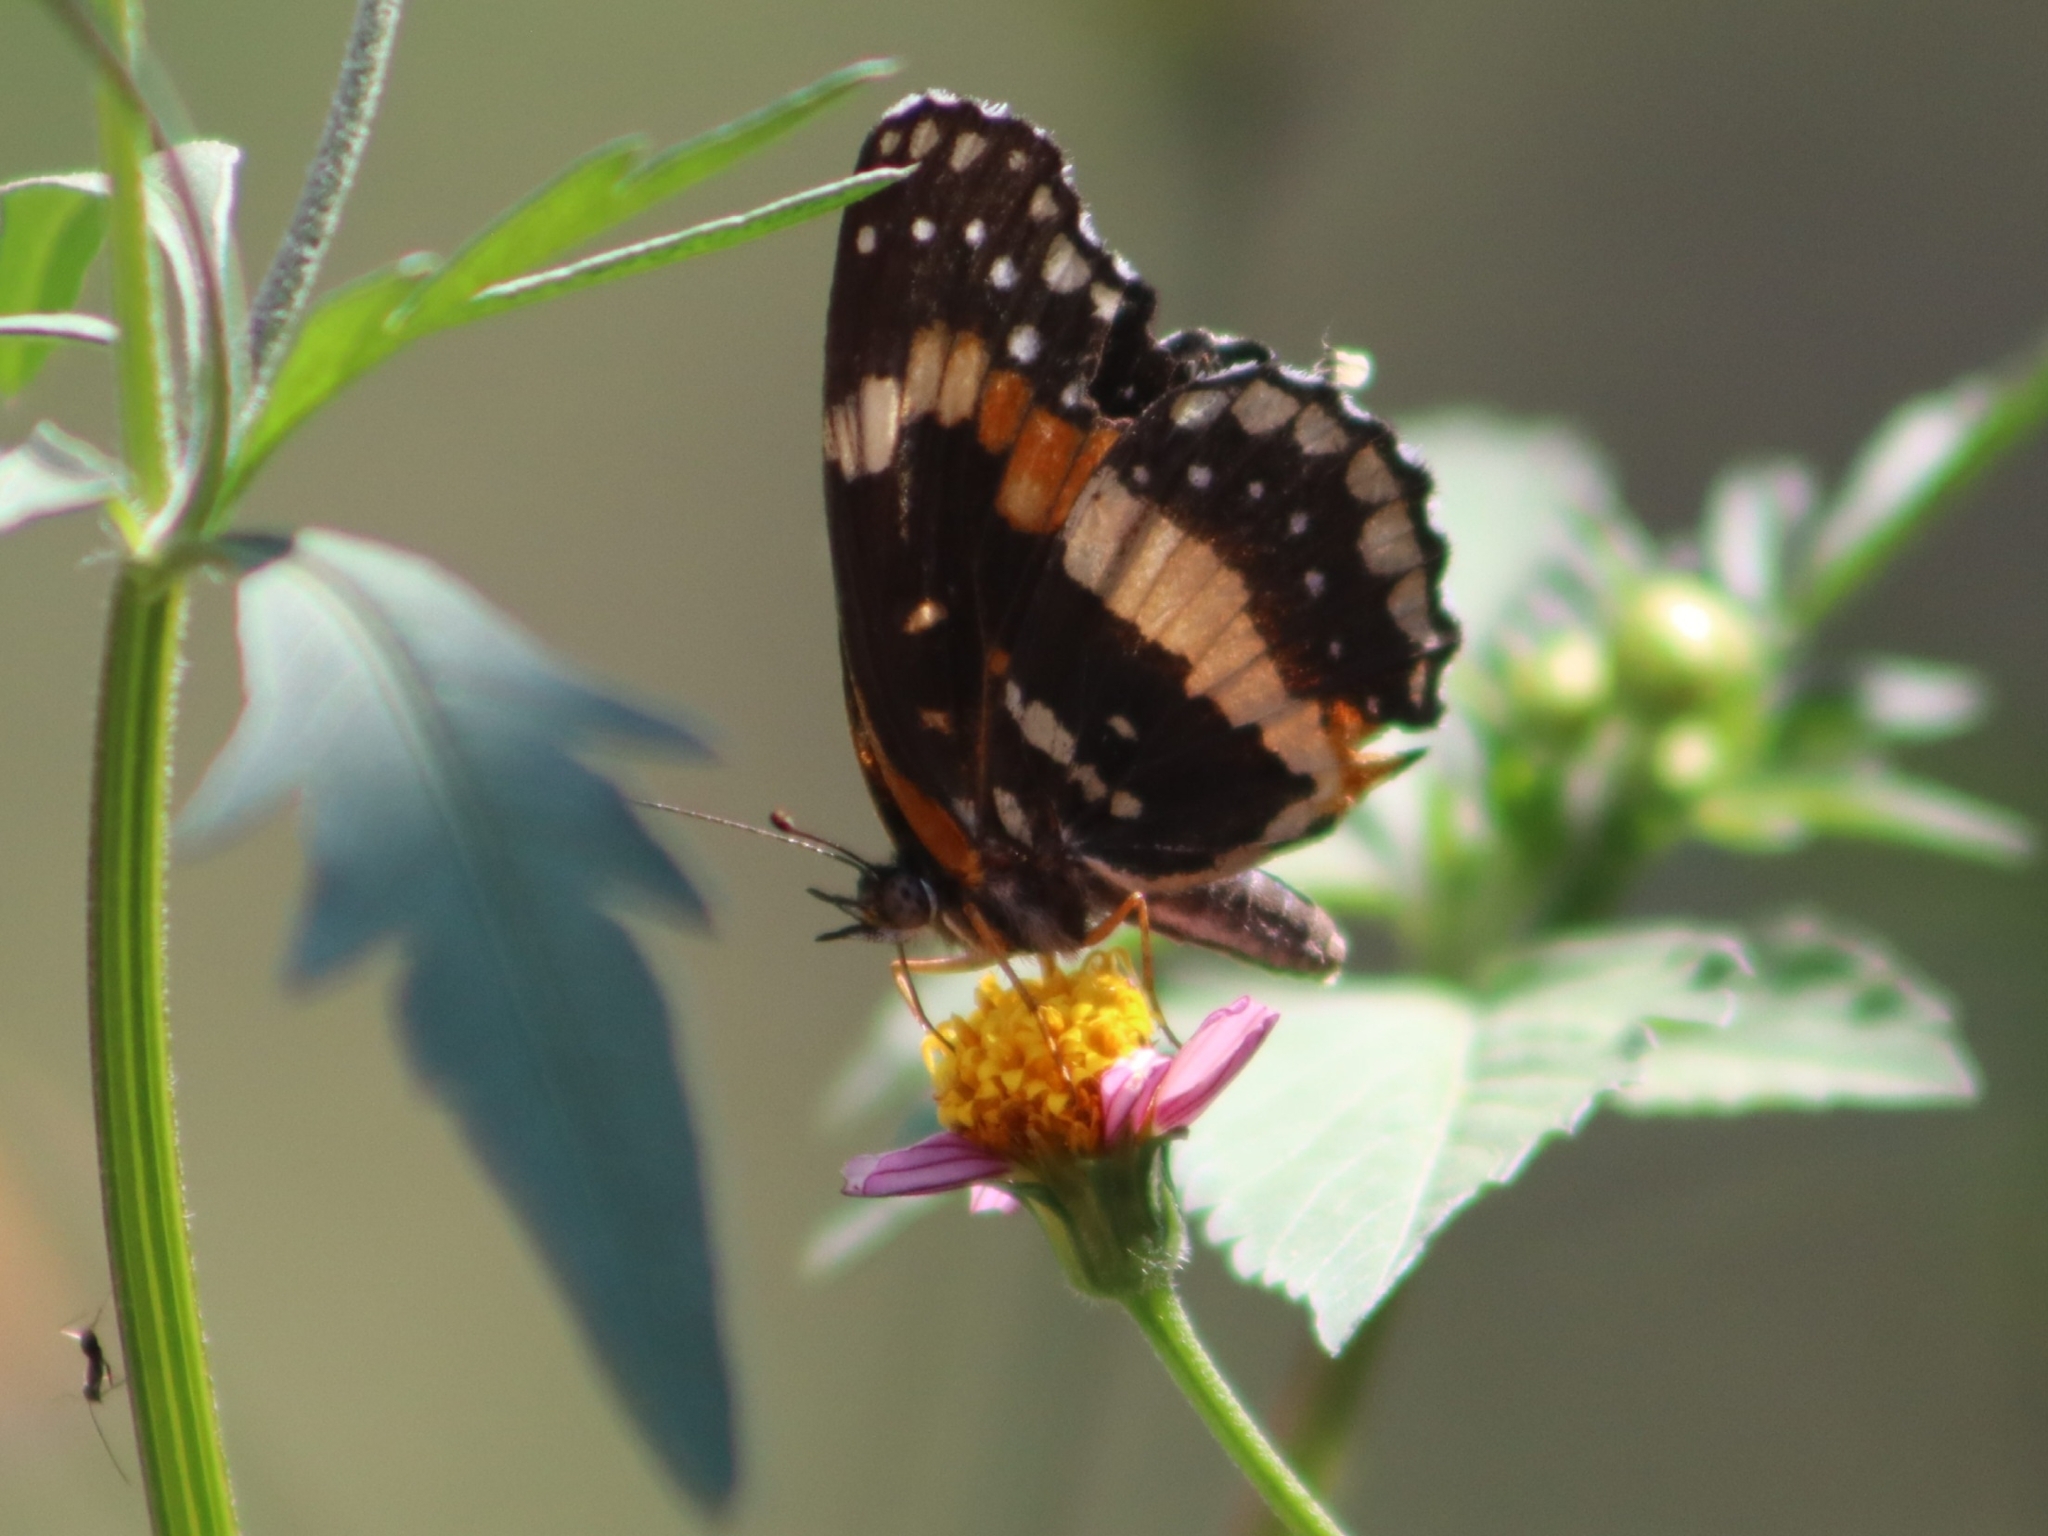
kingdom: Animalia
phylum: Arthropoda
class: Insecta
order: Lepidoptera
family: Nymphalidae
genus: Chlosyne
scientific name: Chlosyne lacinia
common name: Bordered patch
